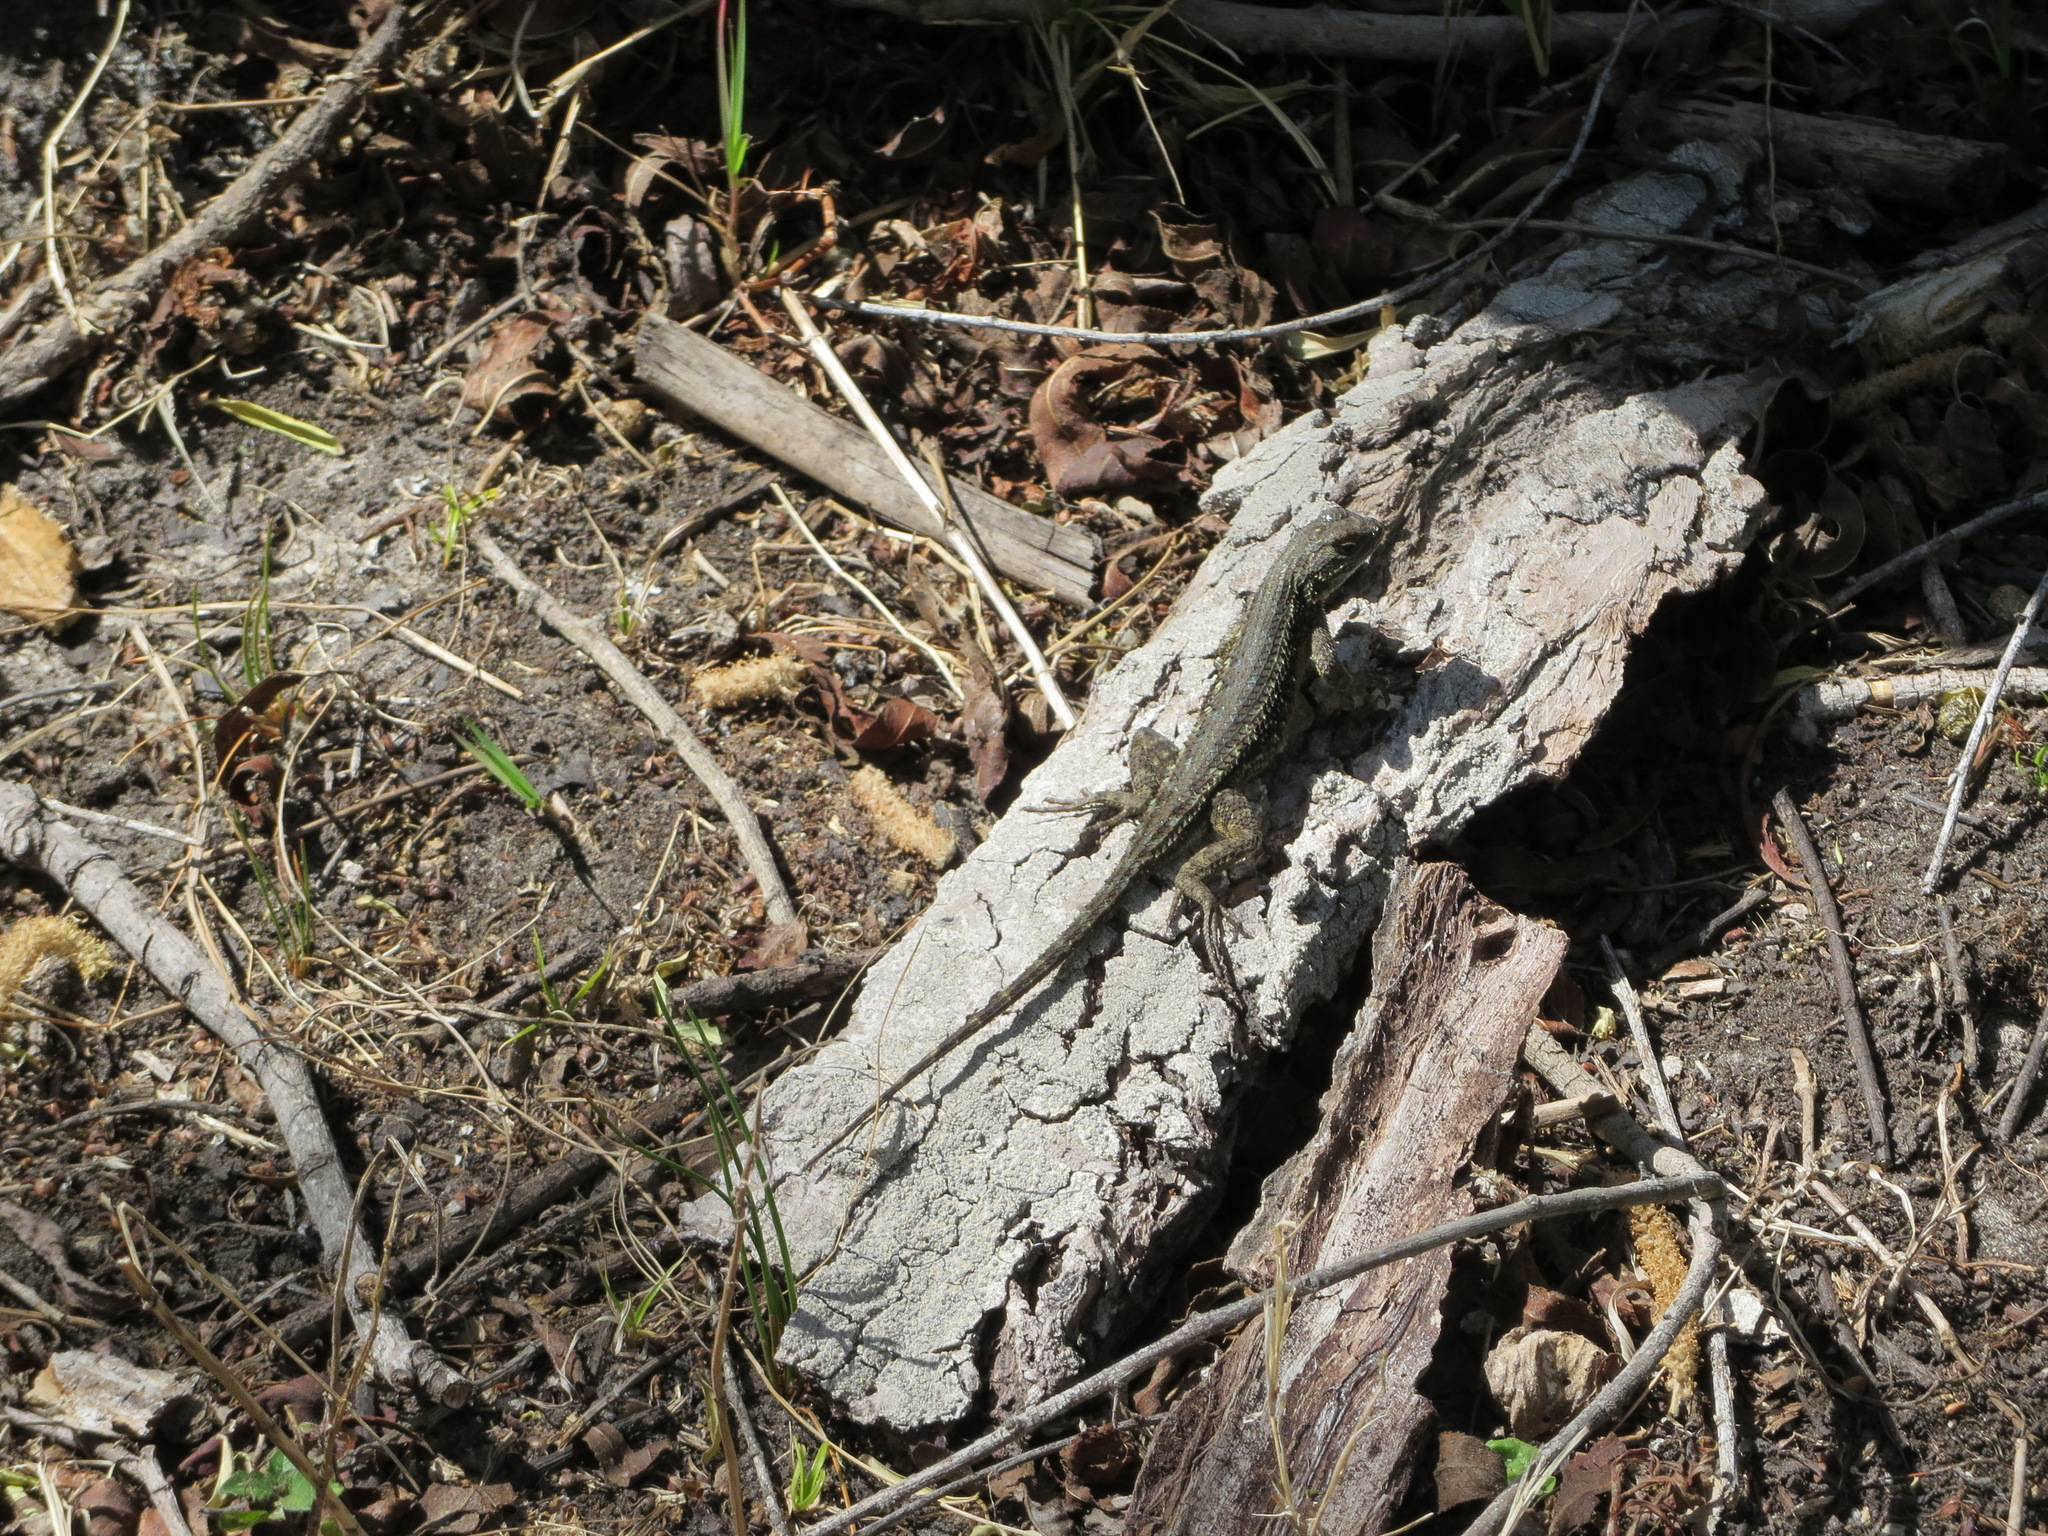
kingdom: Animalia
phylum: Chordata
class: Squamata
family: Phrynosomatidae
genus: Sceloporus
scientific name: Sceloporus occidentalis
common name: Western fence lizard
